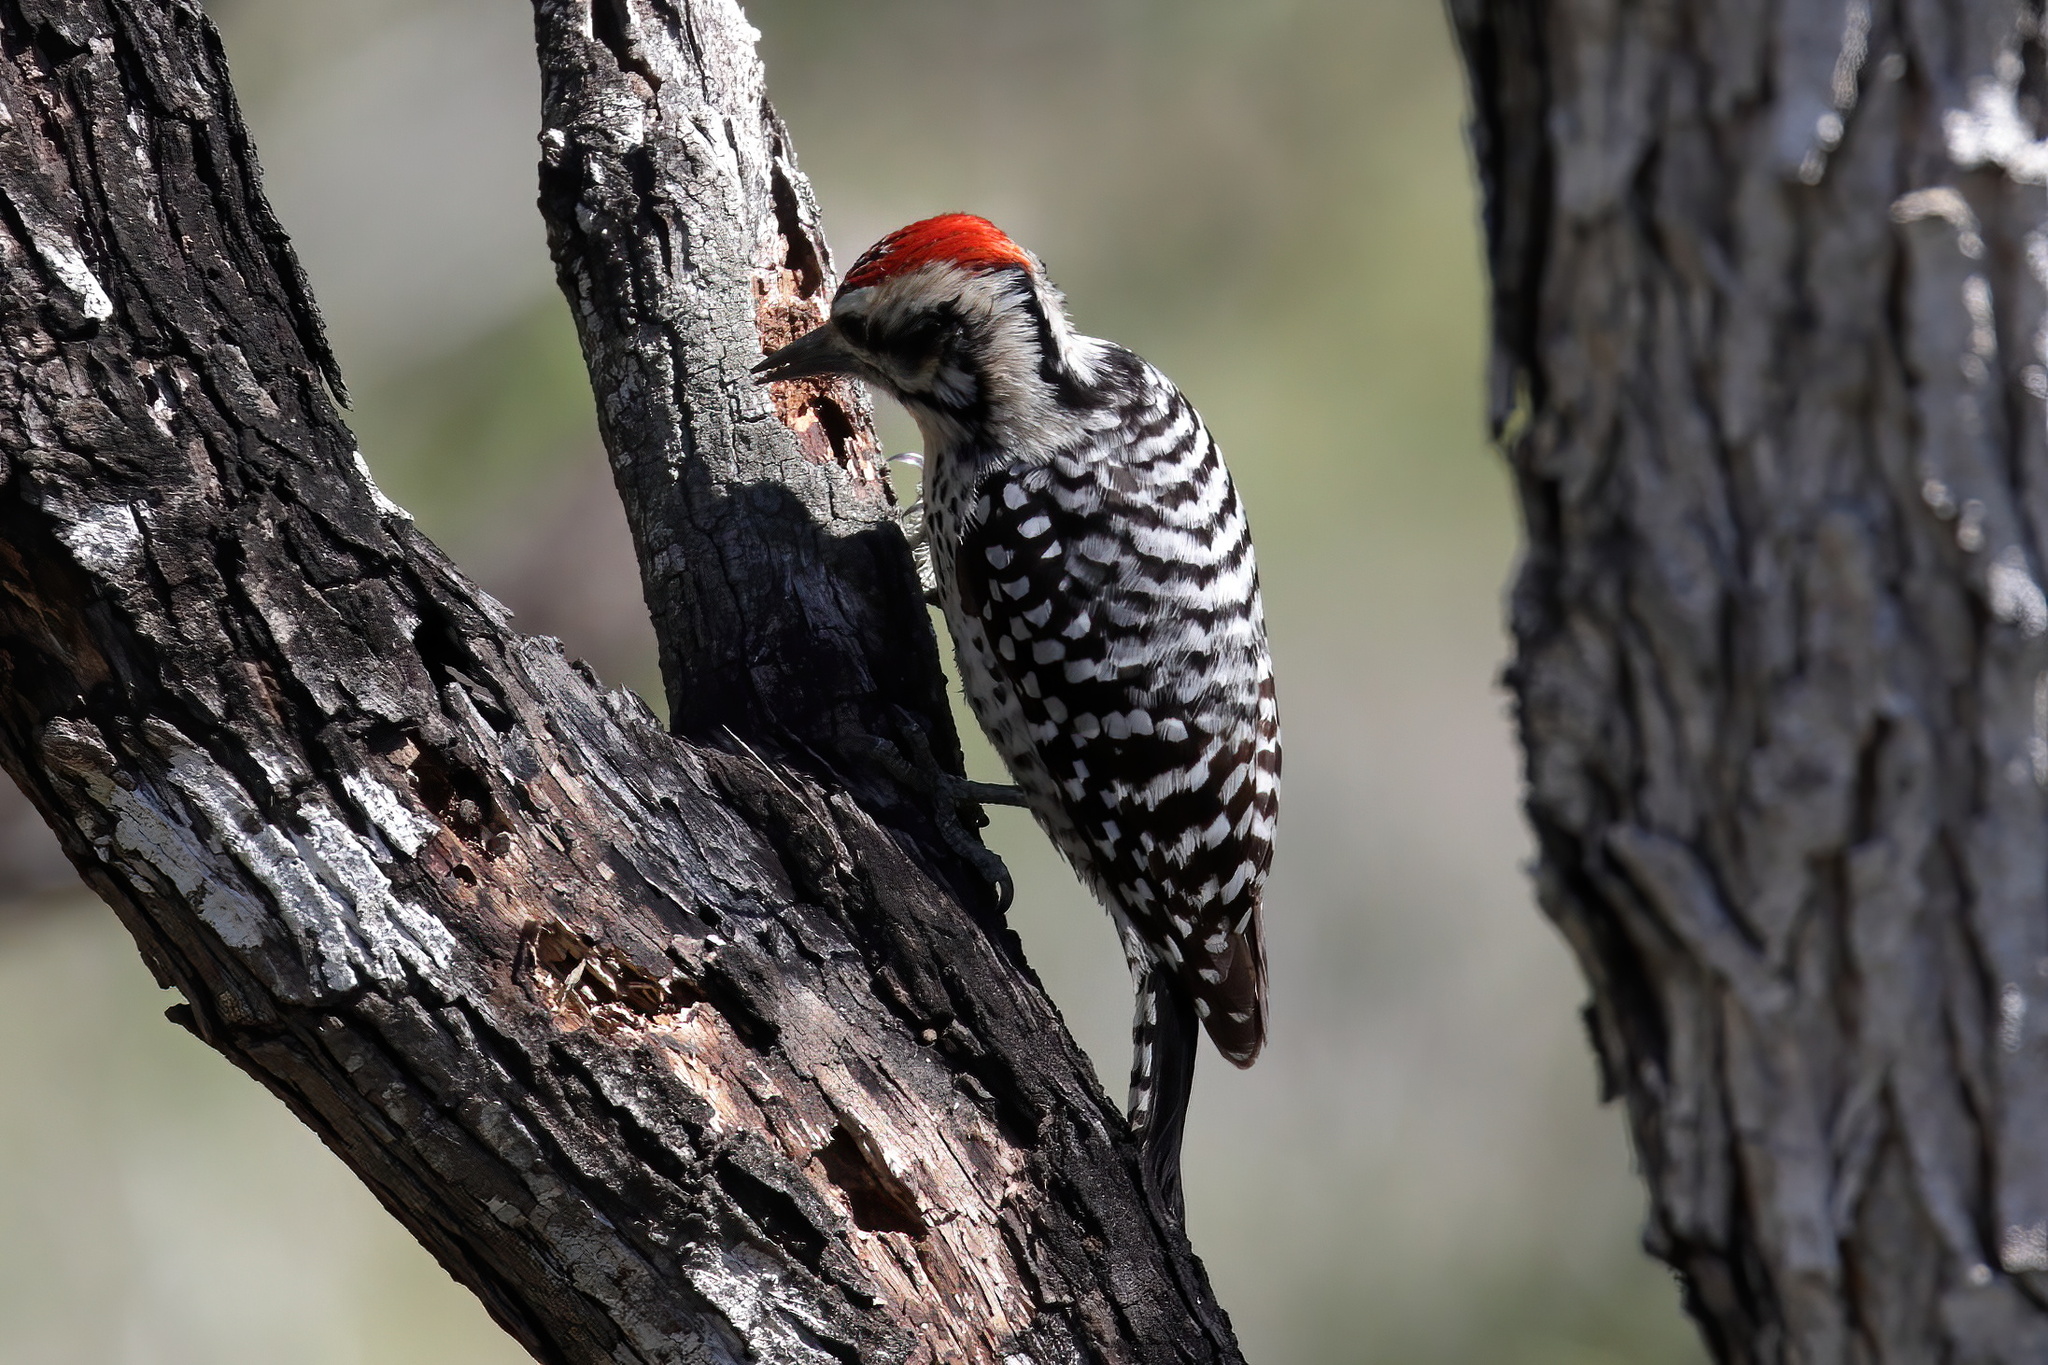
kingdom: Animalia
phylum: Chordata
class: Aves
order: Piciformes
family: Picidae
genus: Dryobates
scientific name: Dryobates scalaris
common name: Ladder-backed woodpecker
